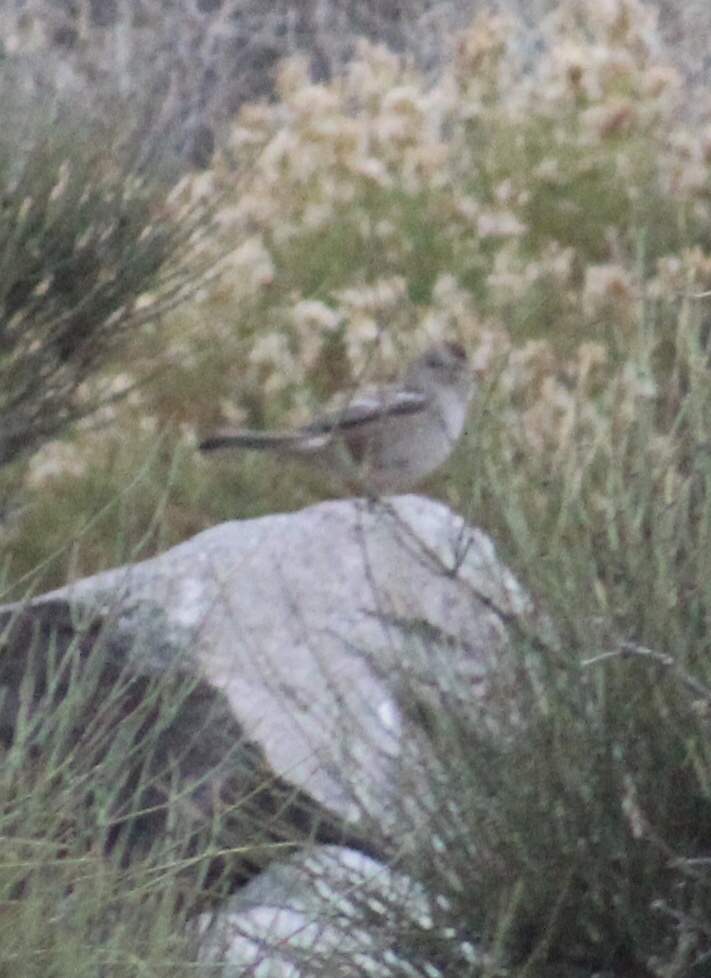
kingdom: Animalia
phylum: Chordata
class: Aves
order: Passeriformes
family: Passerellidae
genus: Zonotrichia
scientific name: Zonotrichia leucophrys
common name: White-crowned sparrow
